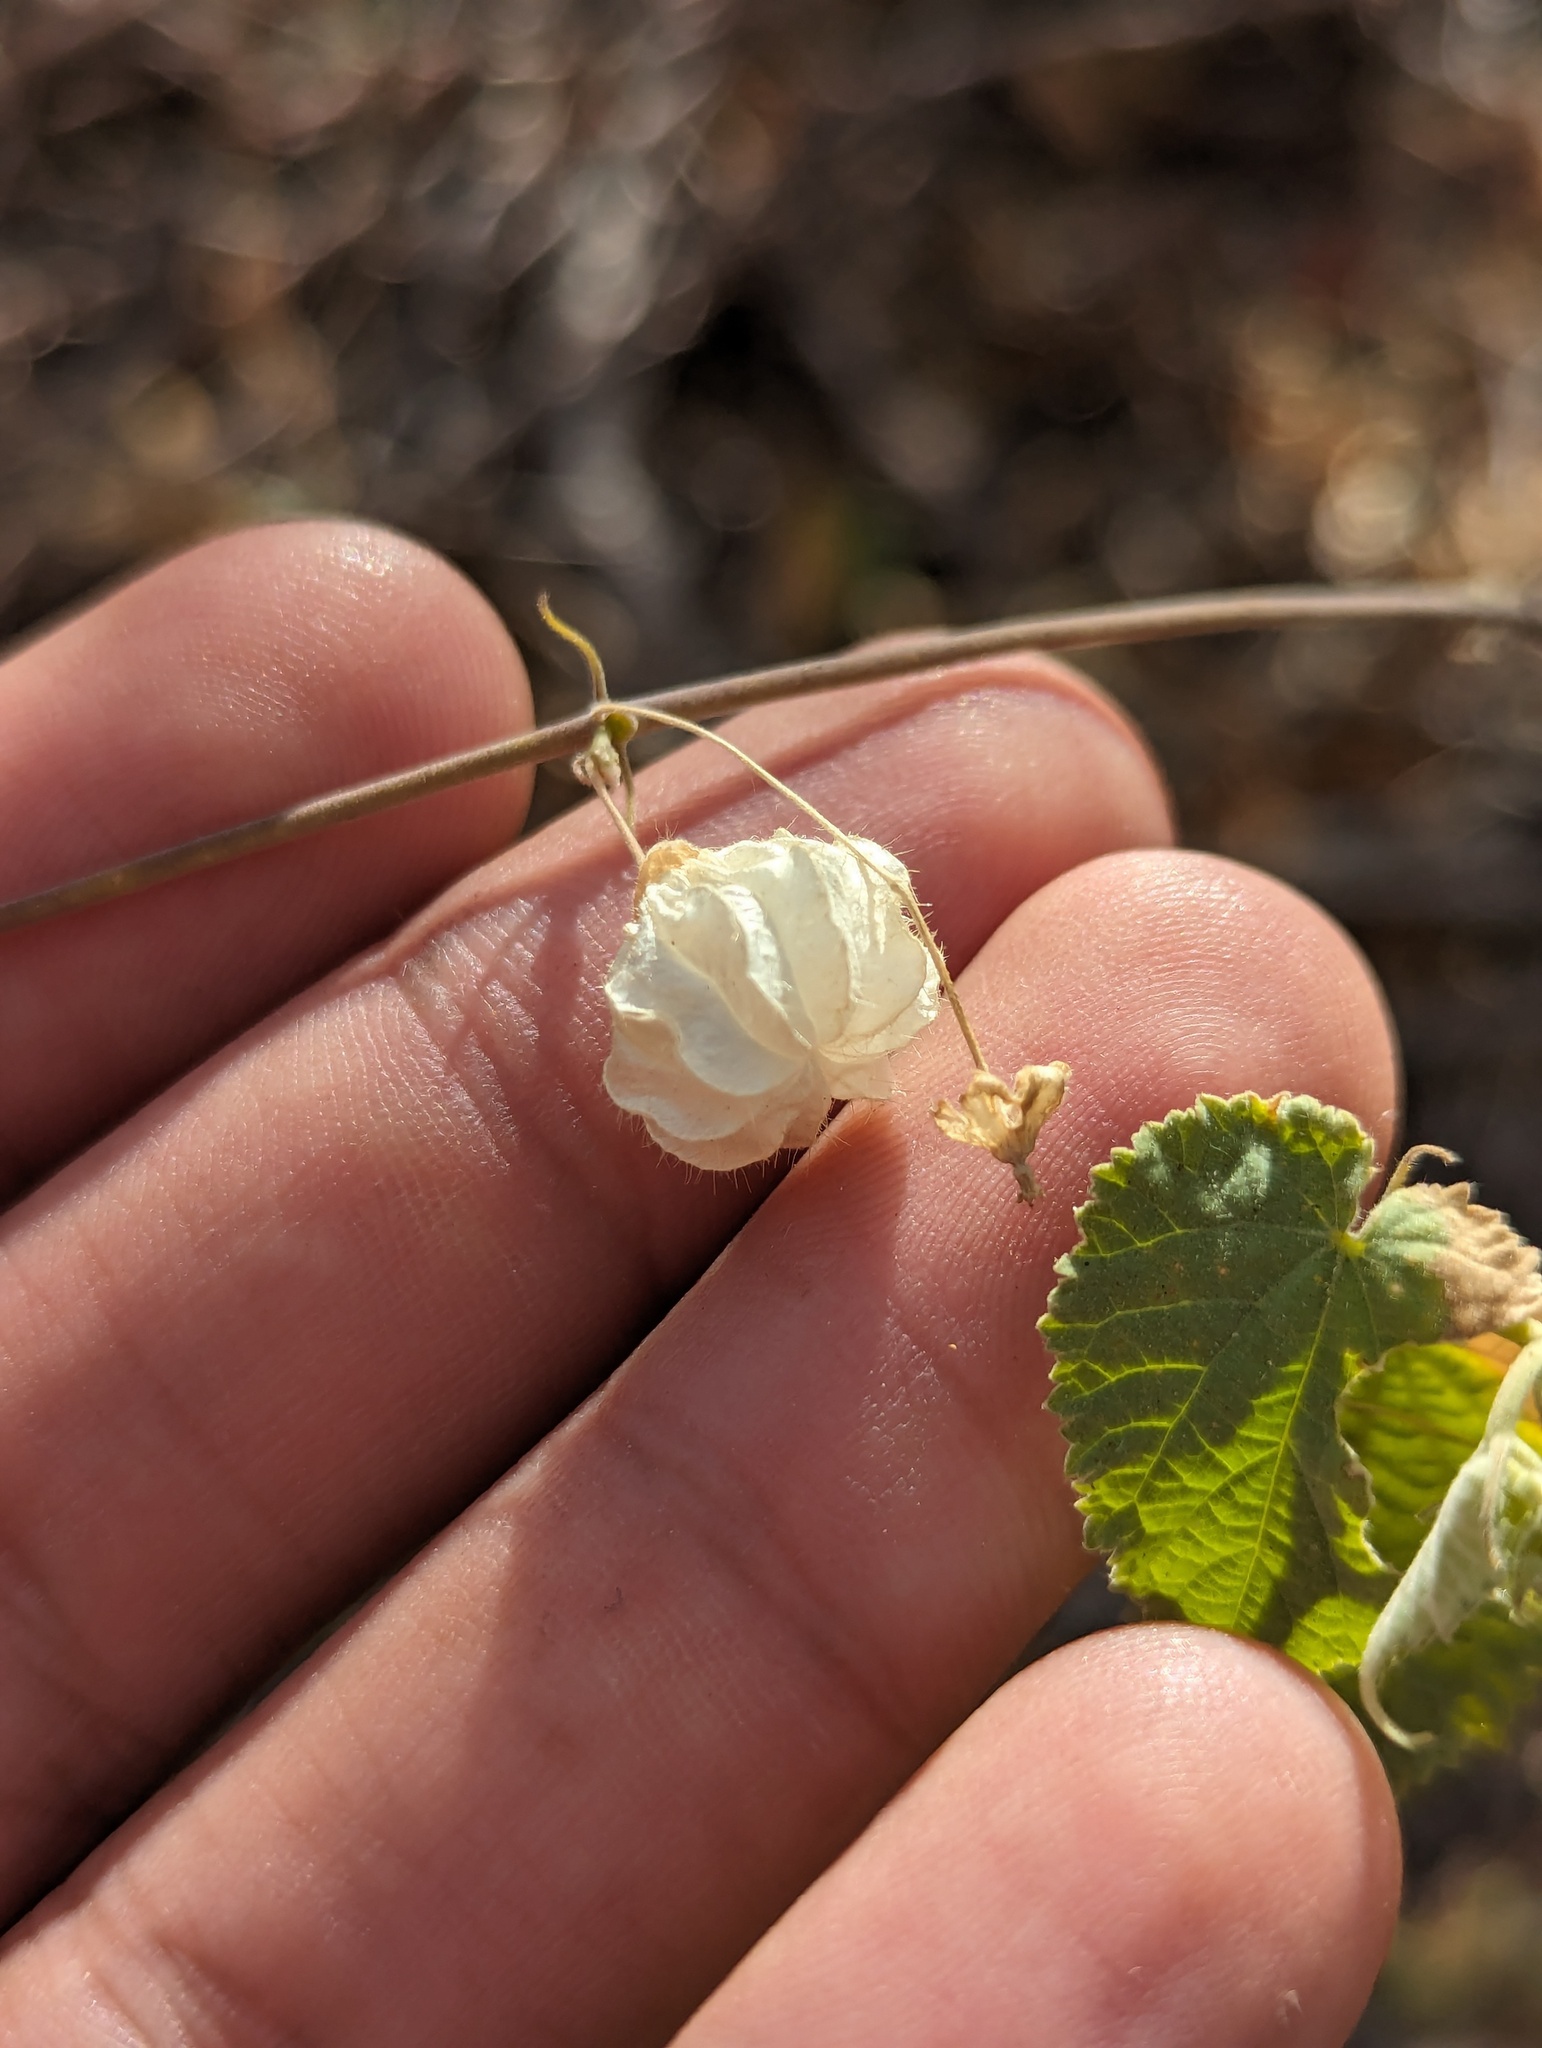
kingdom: Plantae
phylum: Tracheophyta
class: Magnoliopsida
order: Malvales
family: Malvaceae
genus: Herissantia
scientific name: Herissantia crispa
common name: Bladdermallow
